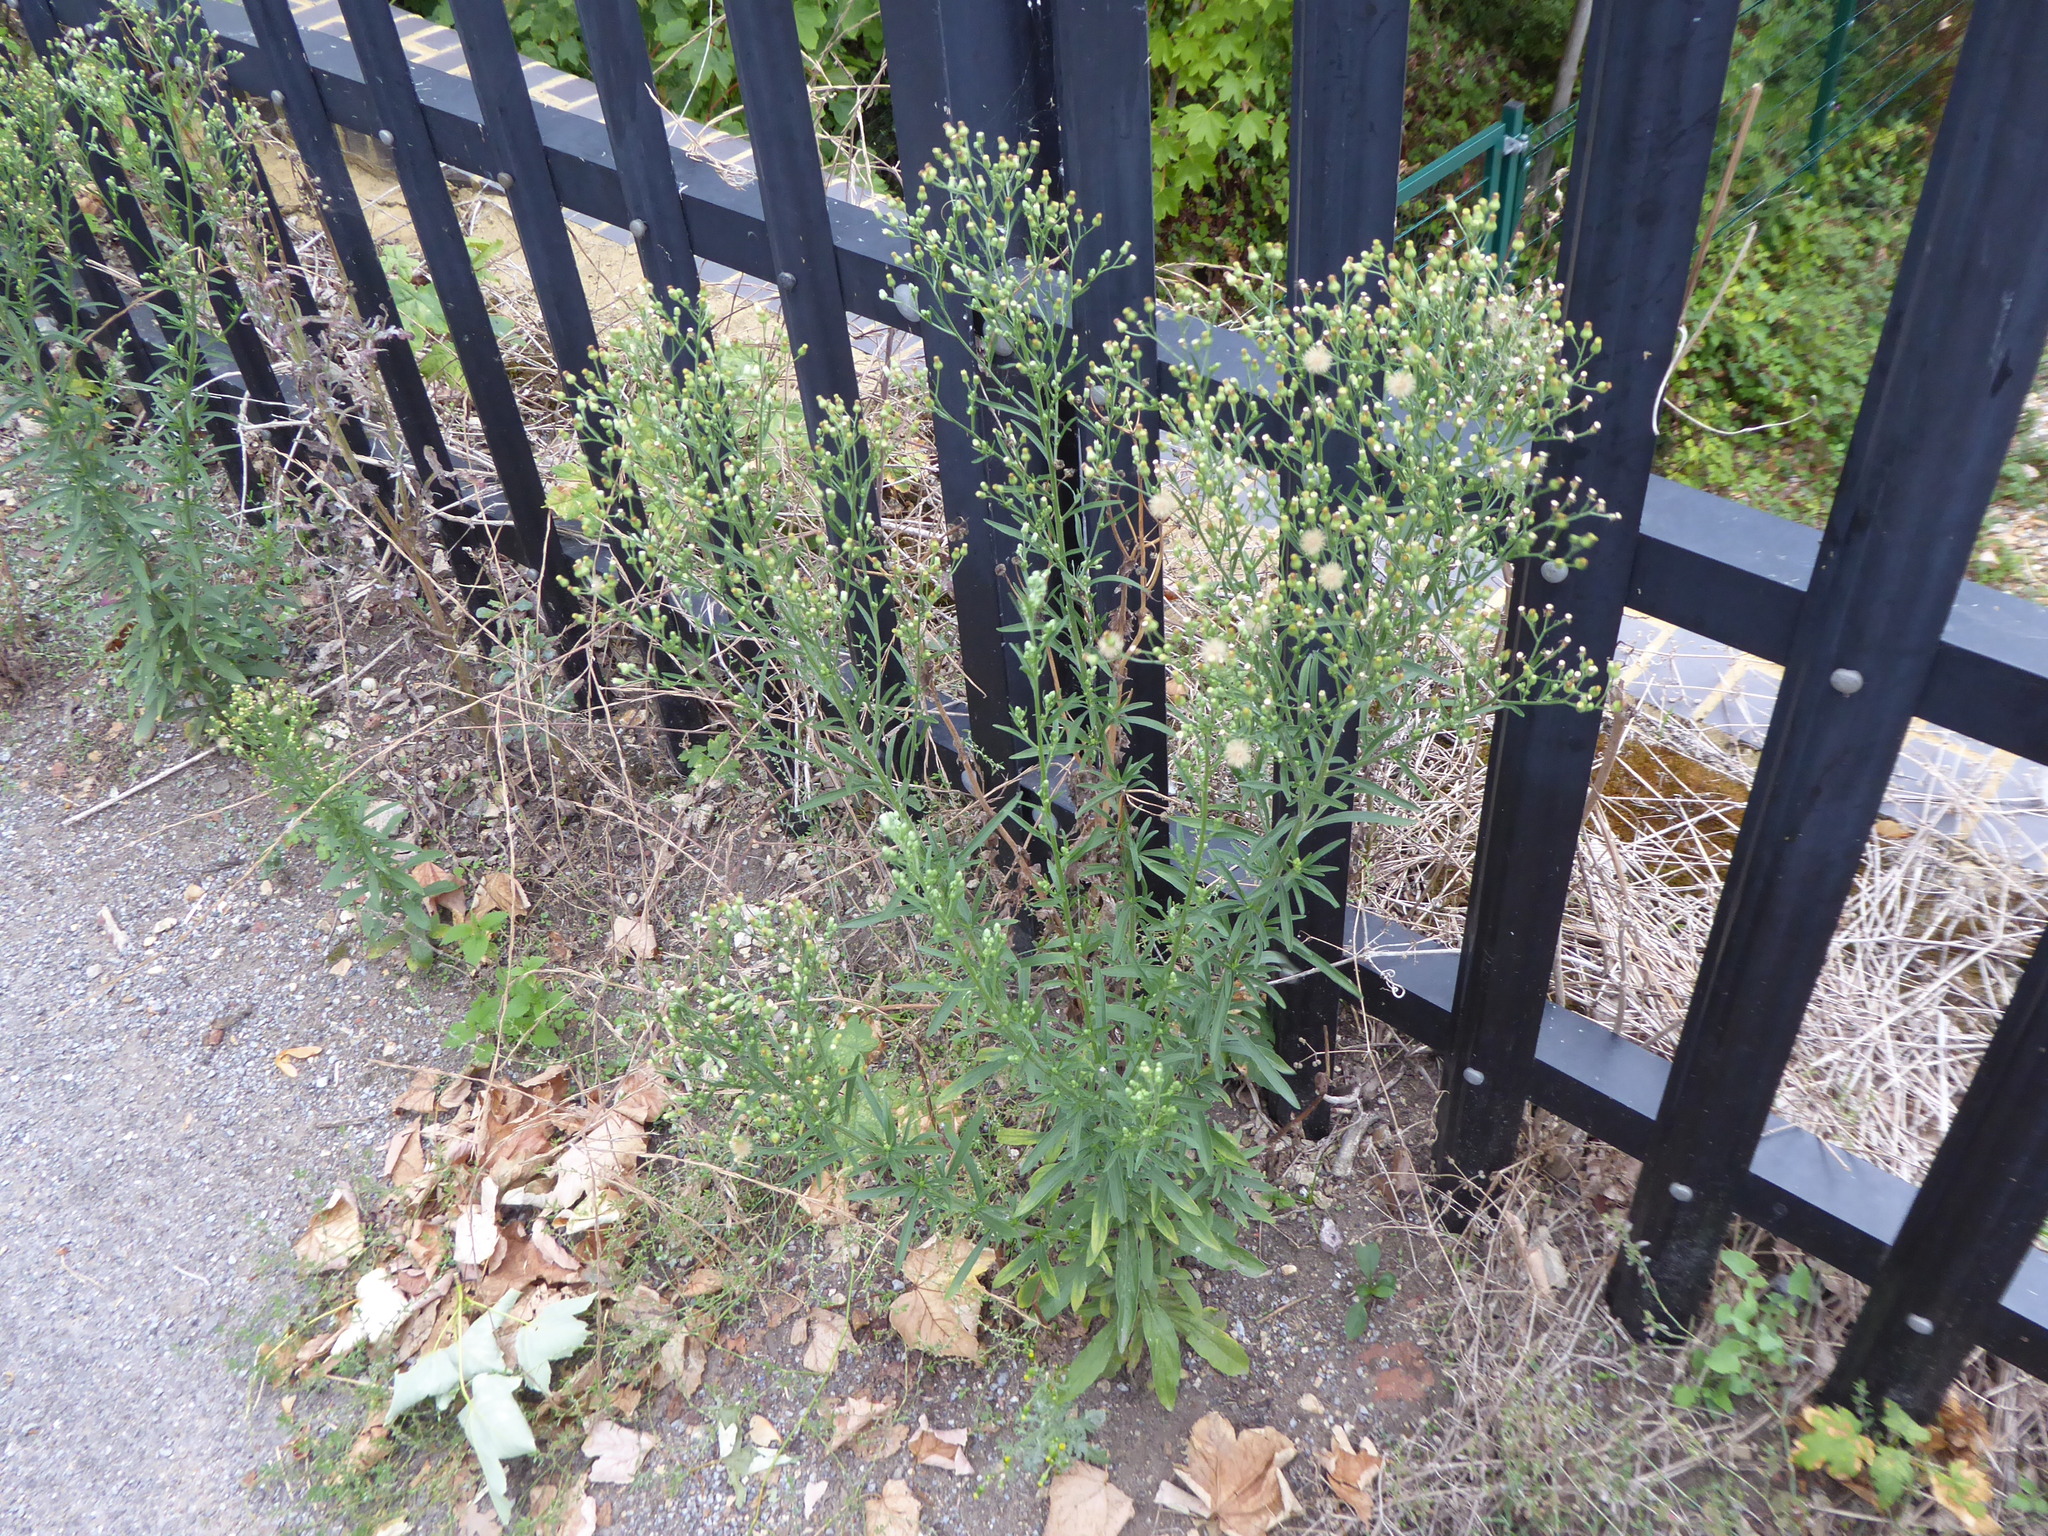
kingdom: Plantae
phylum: Tracheophyta
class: Magnoliopsida
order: Asterales
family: Asteraceae
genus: Erigeron
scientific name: Erigeron sumatrensis
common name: Daisy
